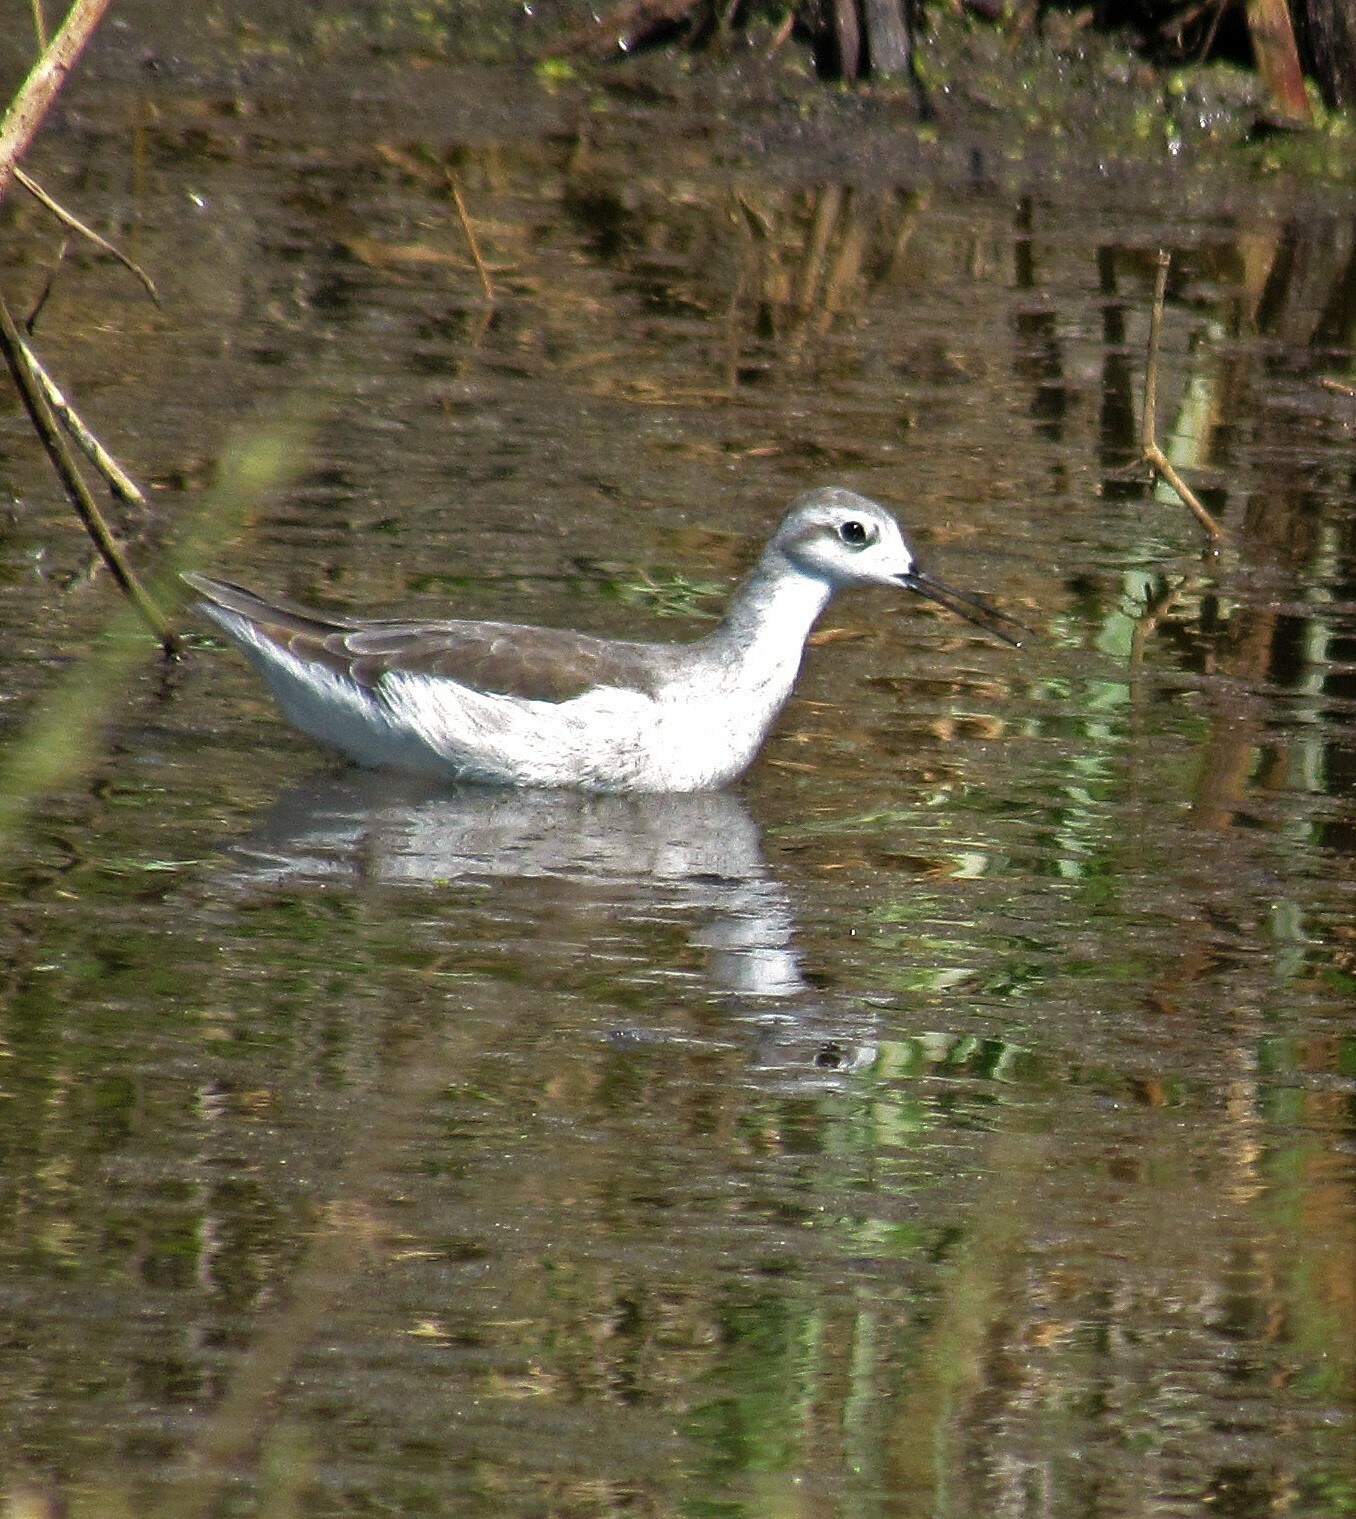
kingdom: Animalia
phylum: Chordata
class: Aves
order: Charadriiformes
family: Scolopacidae
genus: Phalaropus
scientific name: Phalaropus tricolor
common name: Wilson's phalarope
